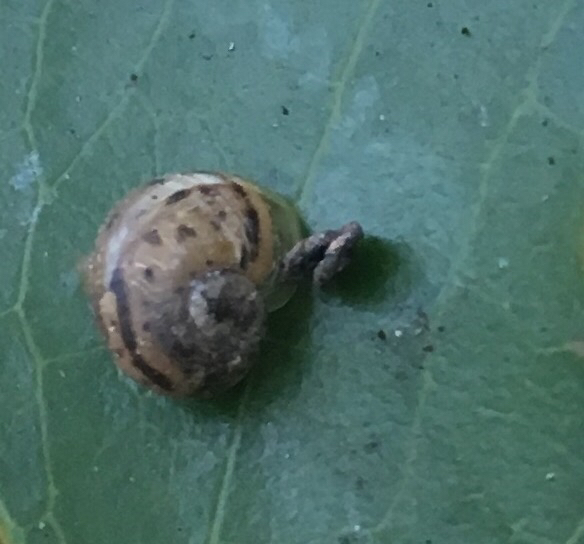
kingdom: Animalia
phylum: Mollusca
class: Gastropoda
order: Stylommatophora
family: Helicidae
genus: Cornu
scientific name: Cornu aspersum
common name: Brown garden snail
